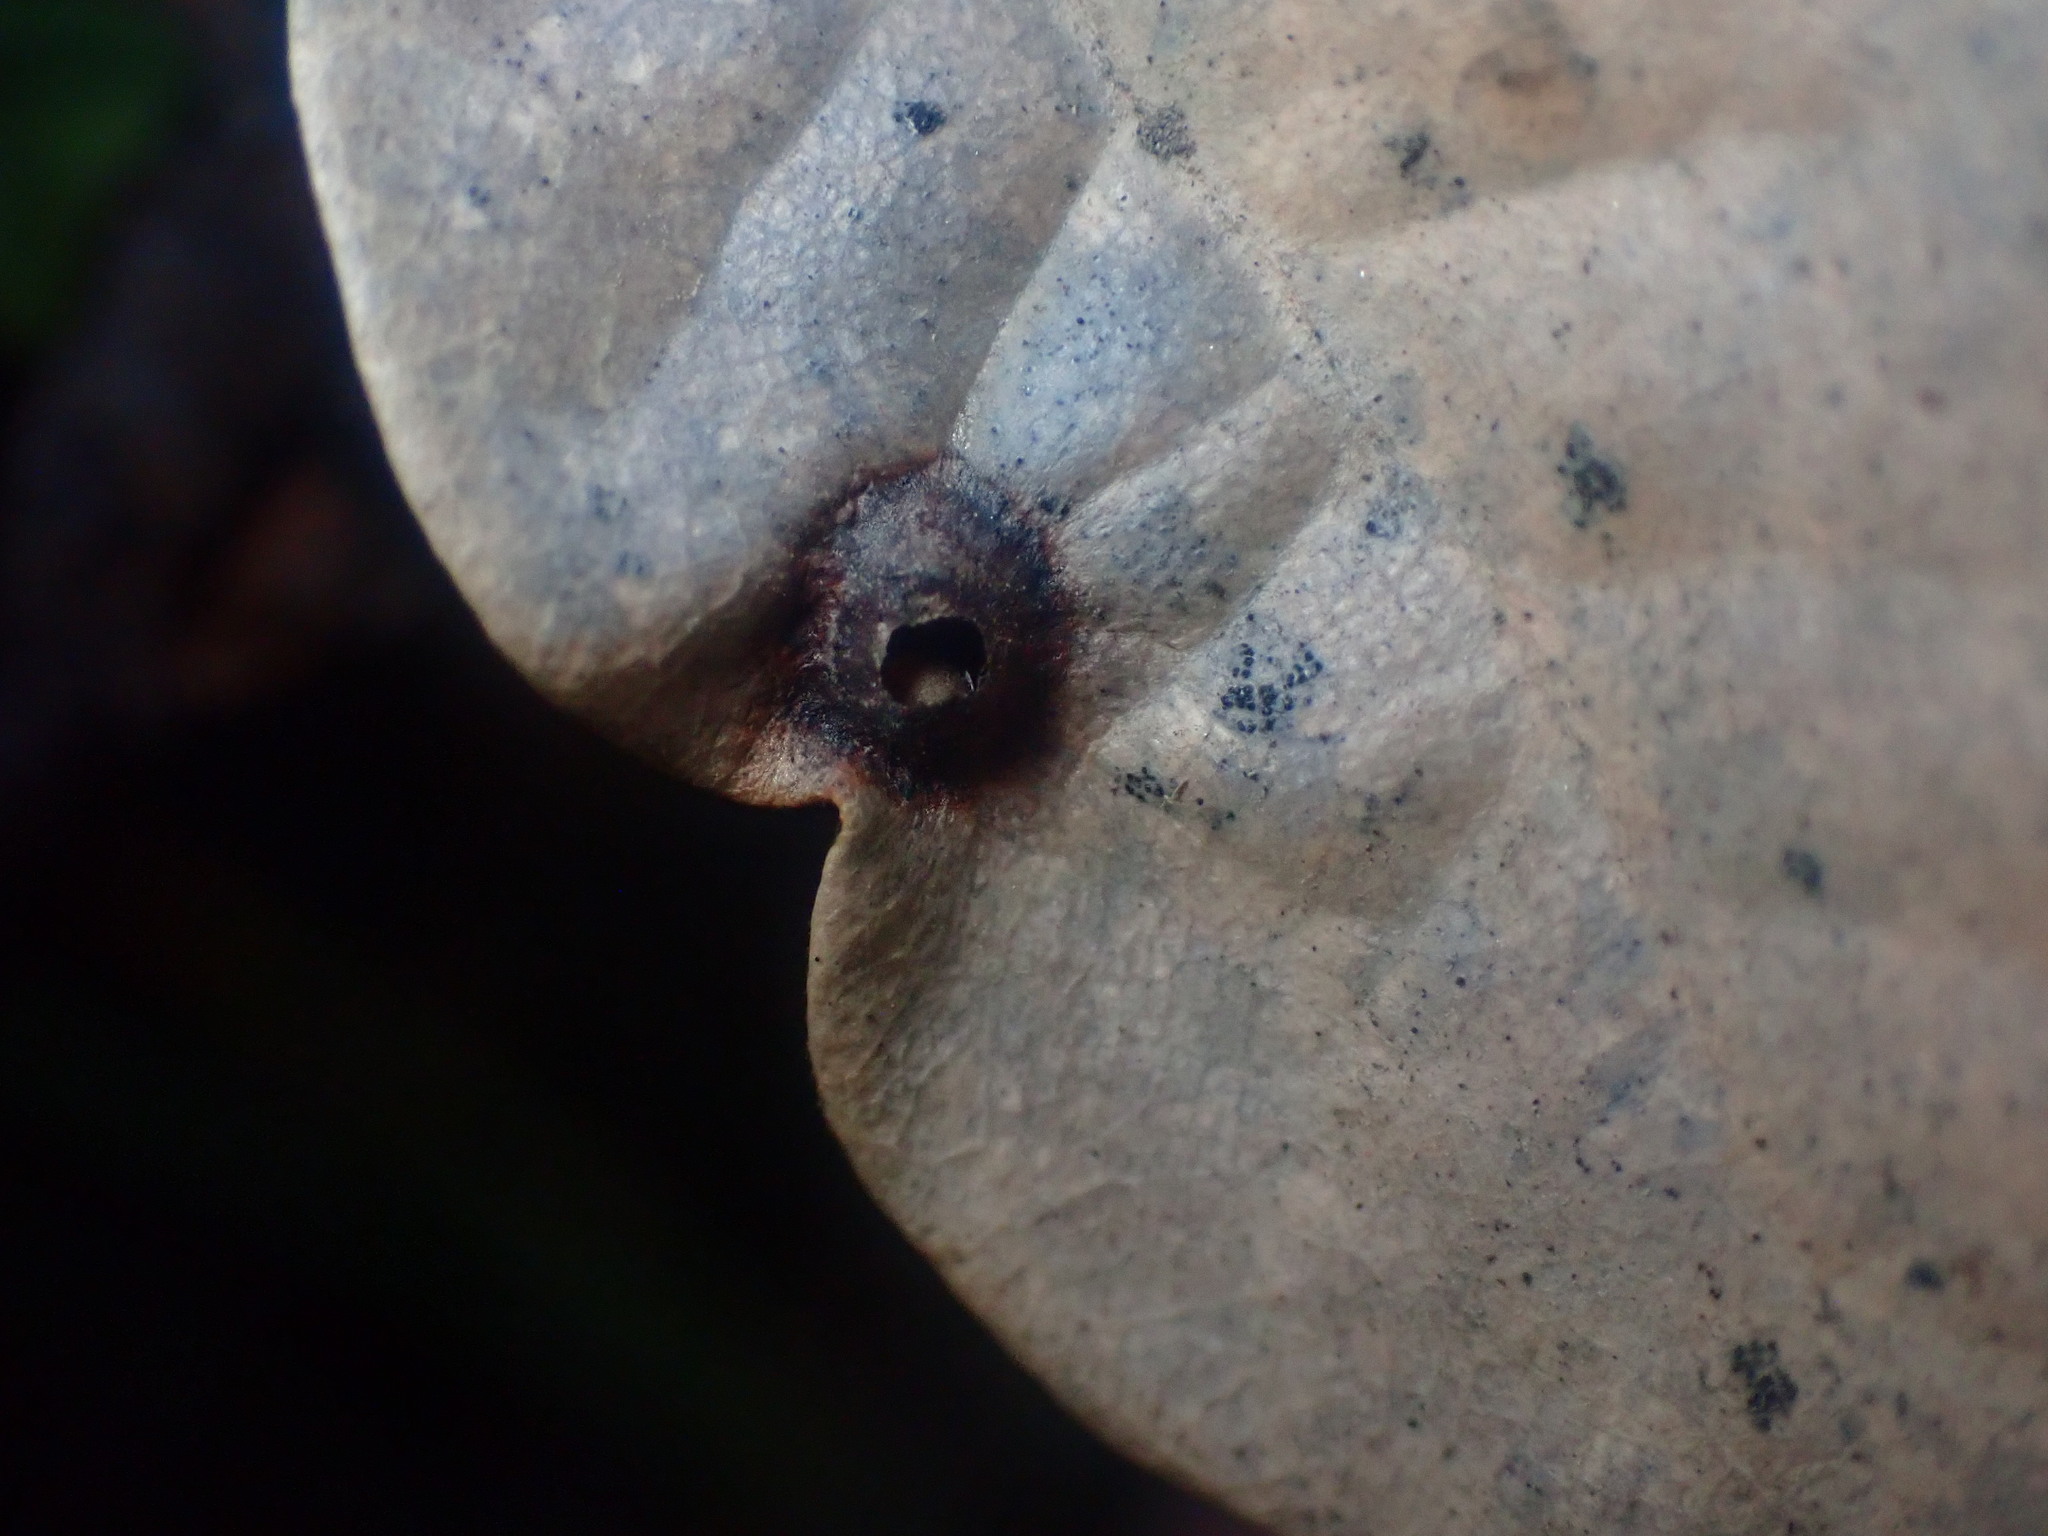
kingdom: Animalia
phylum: Arthropoda
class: Insecta
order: Hymenoptera
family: Cynipidae
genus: Dryocosmus
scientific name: Dryocosmus juliae
